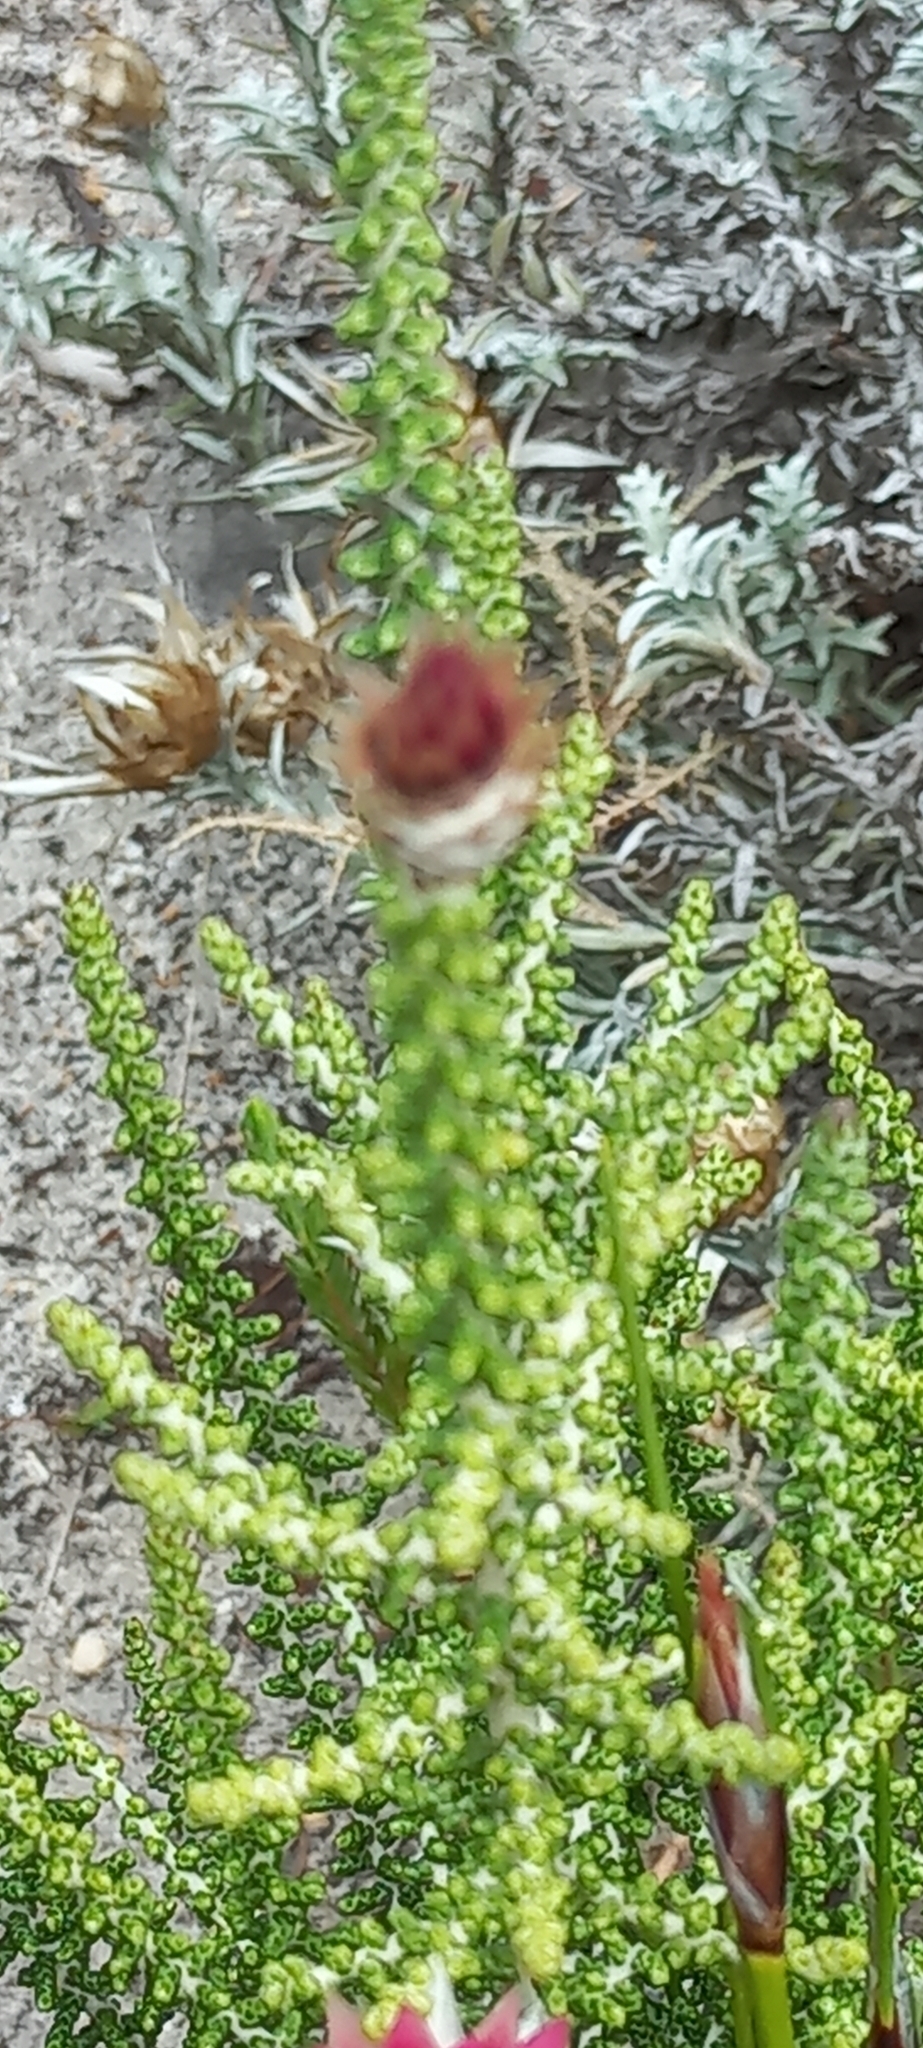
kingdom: Plantae
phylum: Tracheophyta
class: Magnoliopsida
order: Asterales
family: Asteraceae
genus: Phaenocoma
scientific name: Phaenocoma prolifera
